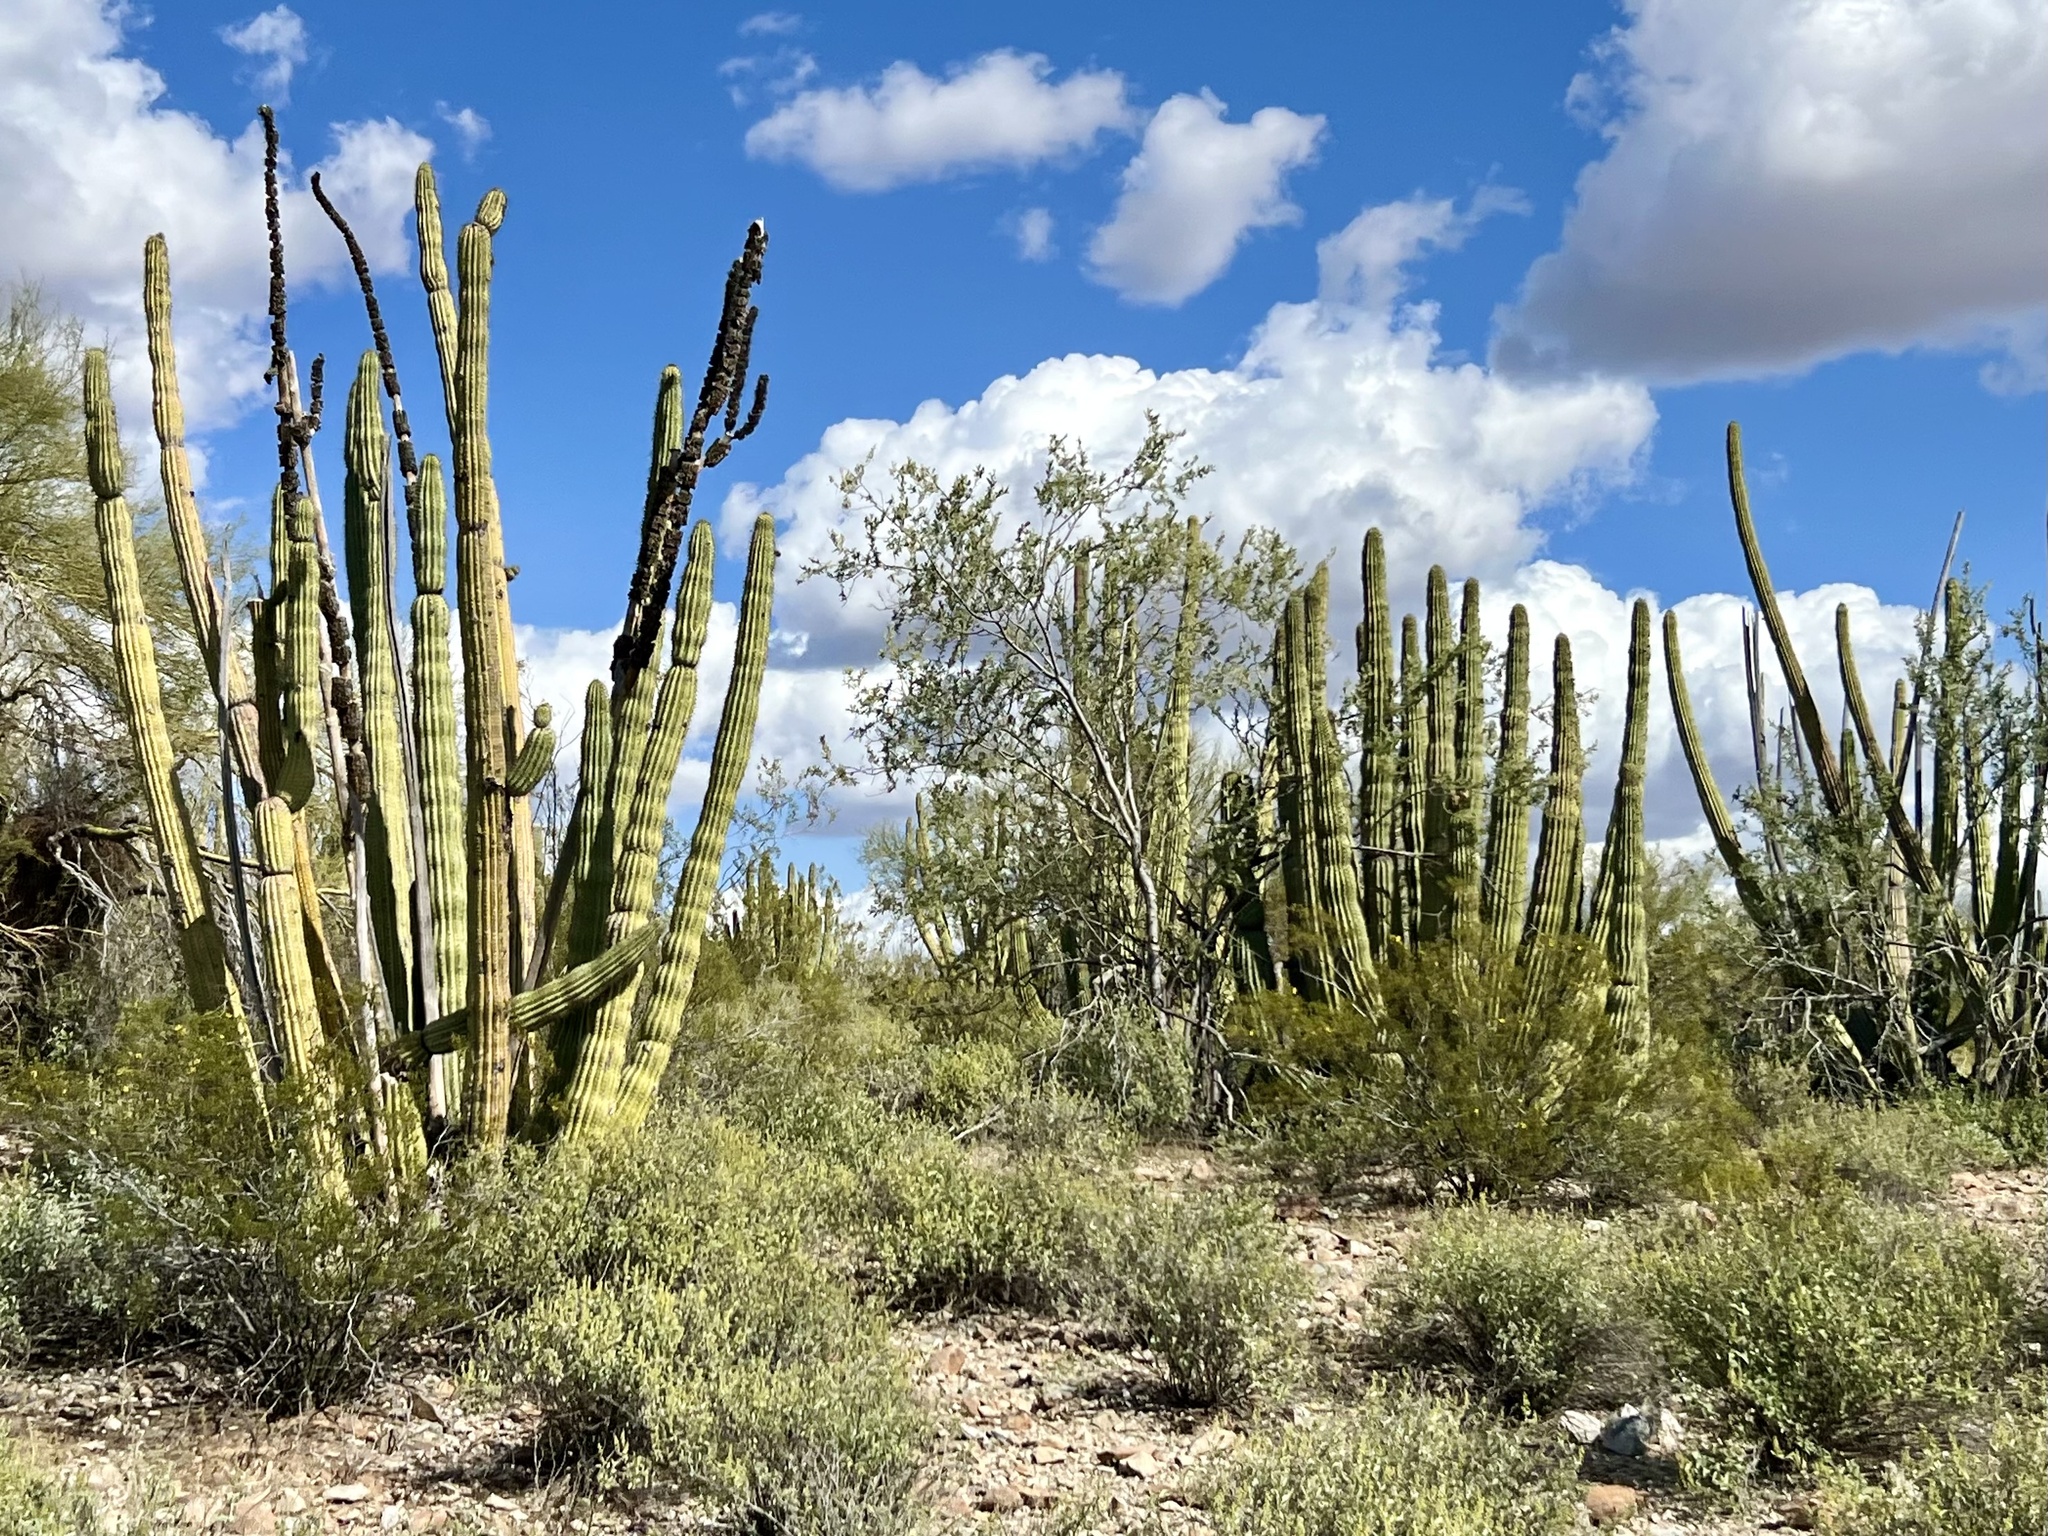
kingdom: Plantae
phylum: Tracheophyta
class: Magnoliopsida
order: Caryophyllales
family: Cactaceae
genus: Stenocereus
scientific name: Stenocereus thurberi
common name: Organ pipe cactus
